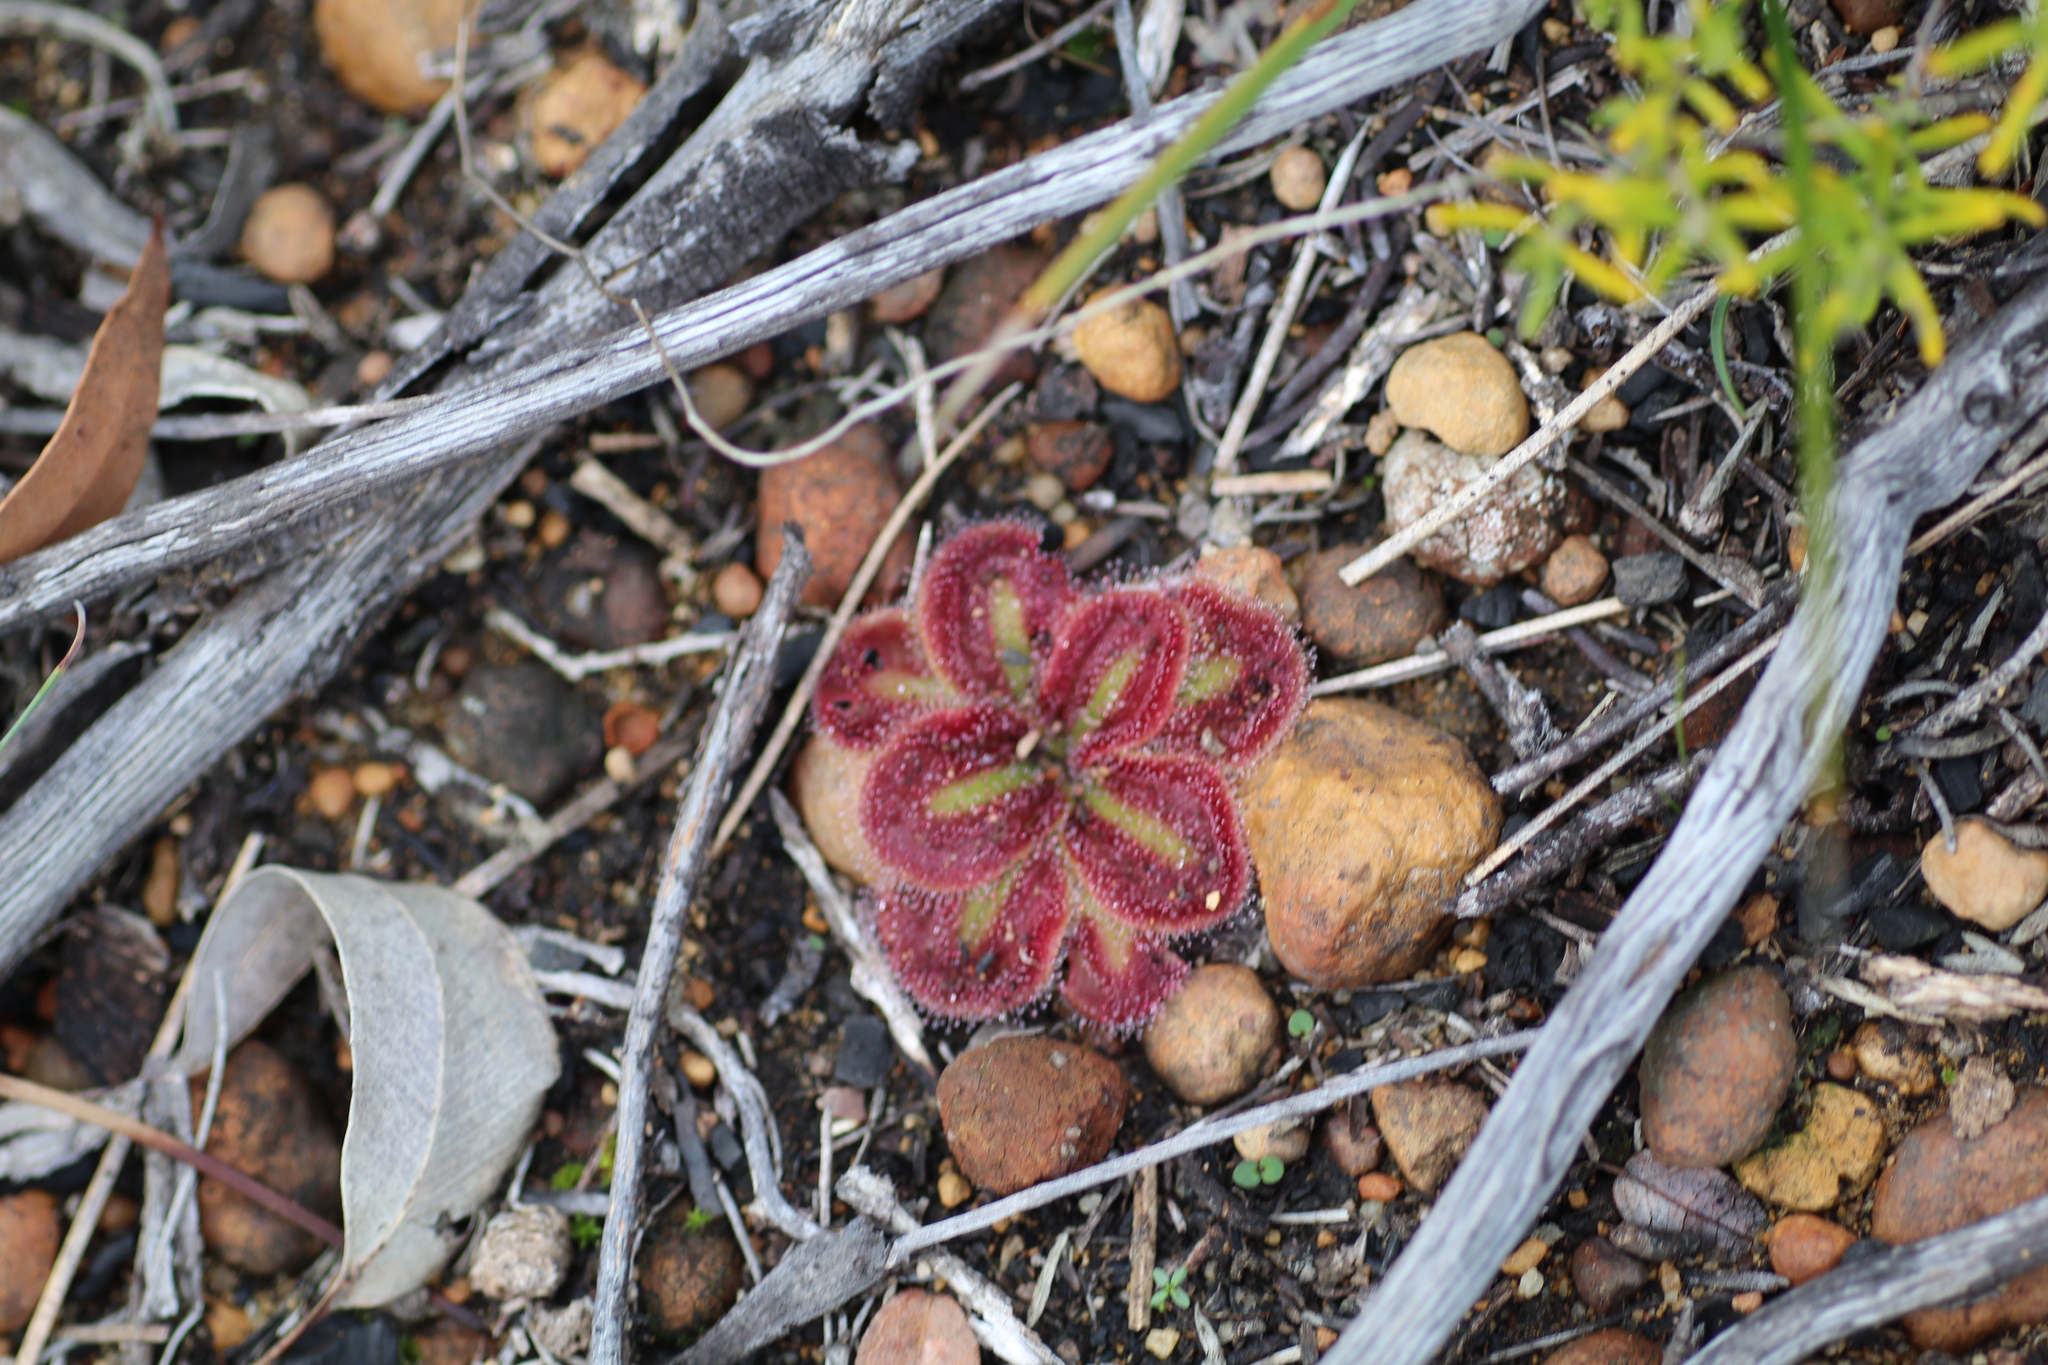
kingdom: Plantae
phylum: Tracheophyta
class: Magnoliopsida
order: Caryophyllales
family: Droseraceae
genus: Drosera
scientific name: Drosera erythrorhiza
